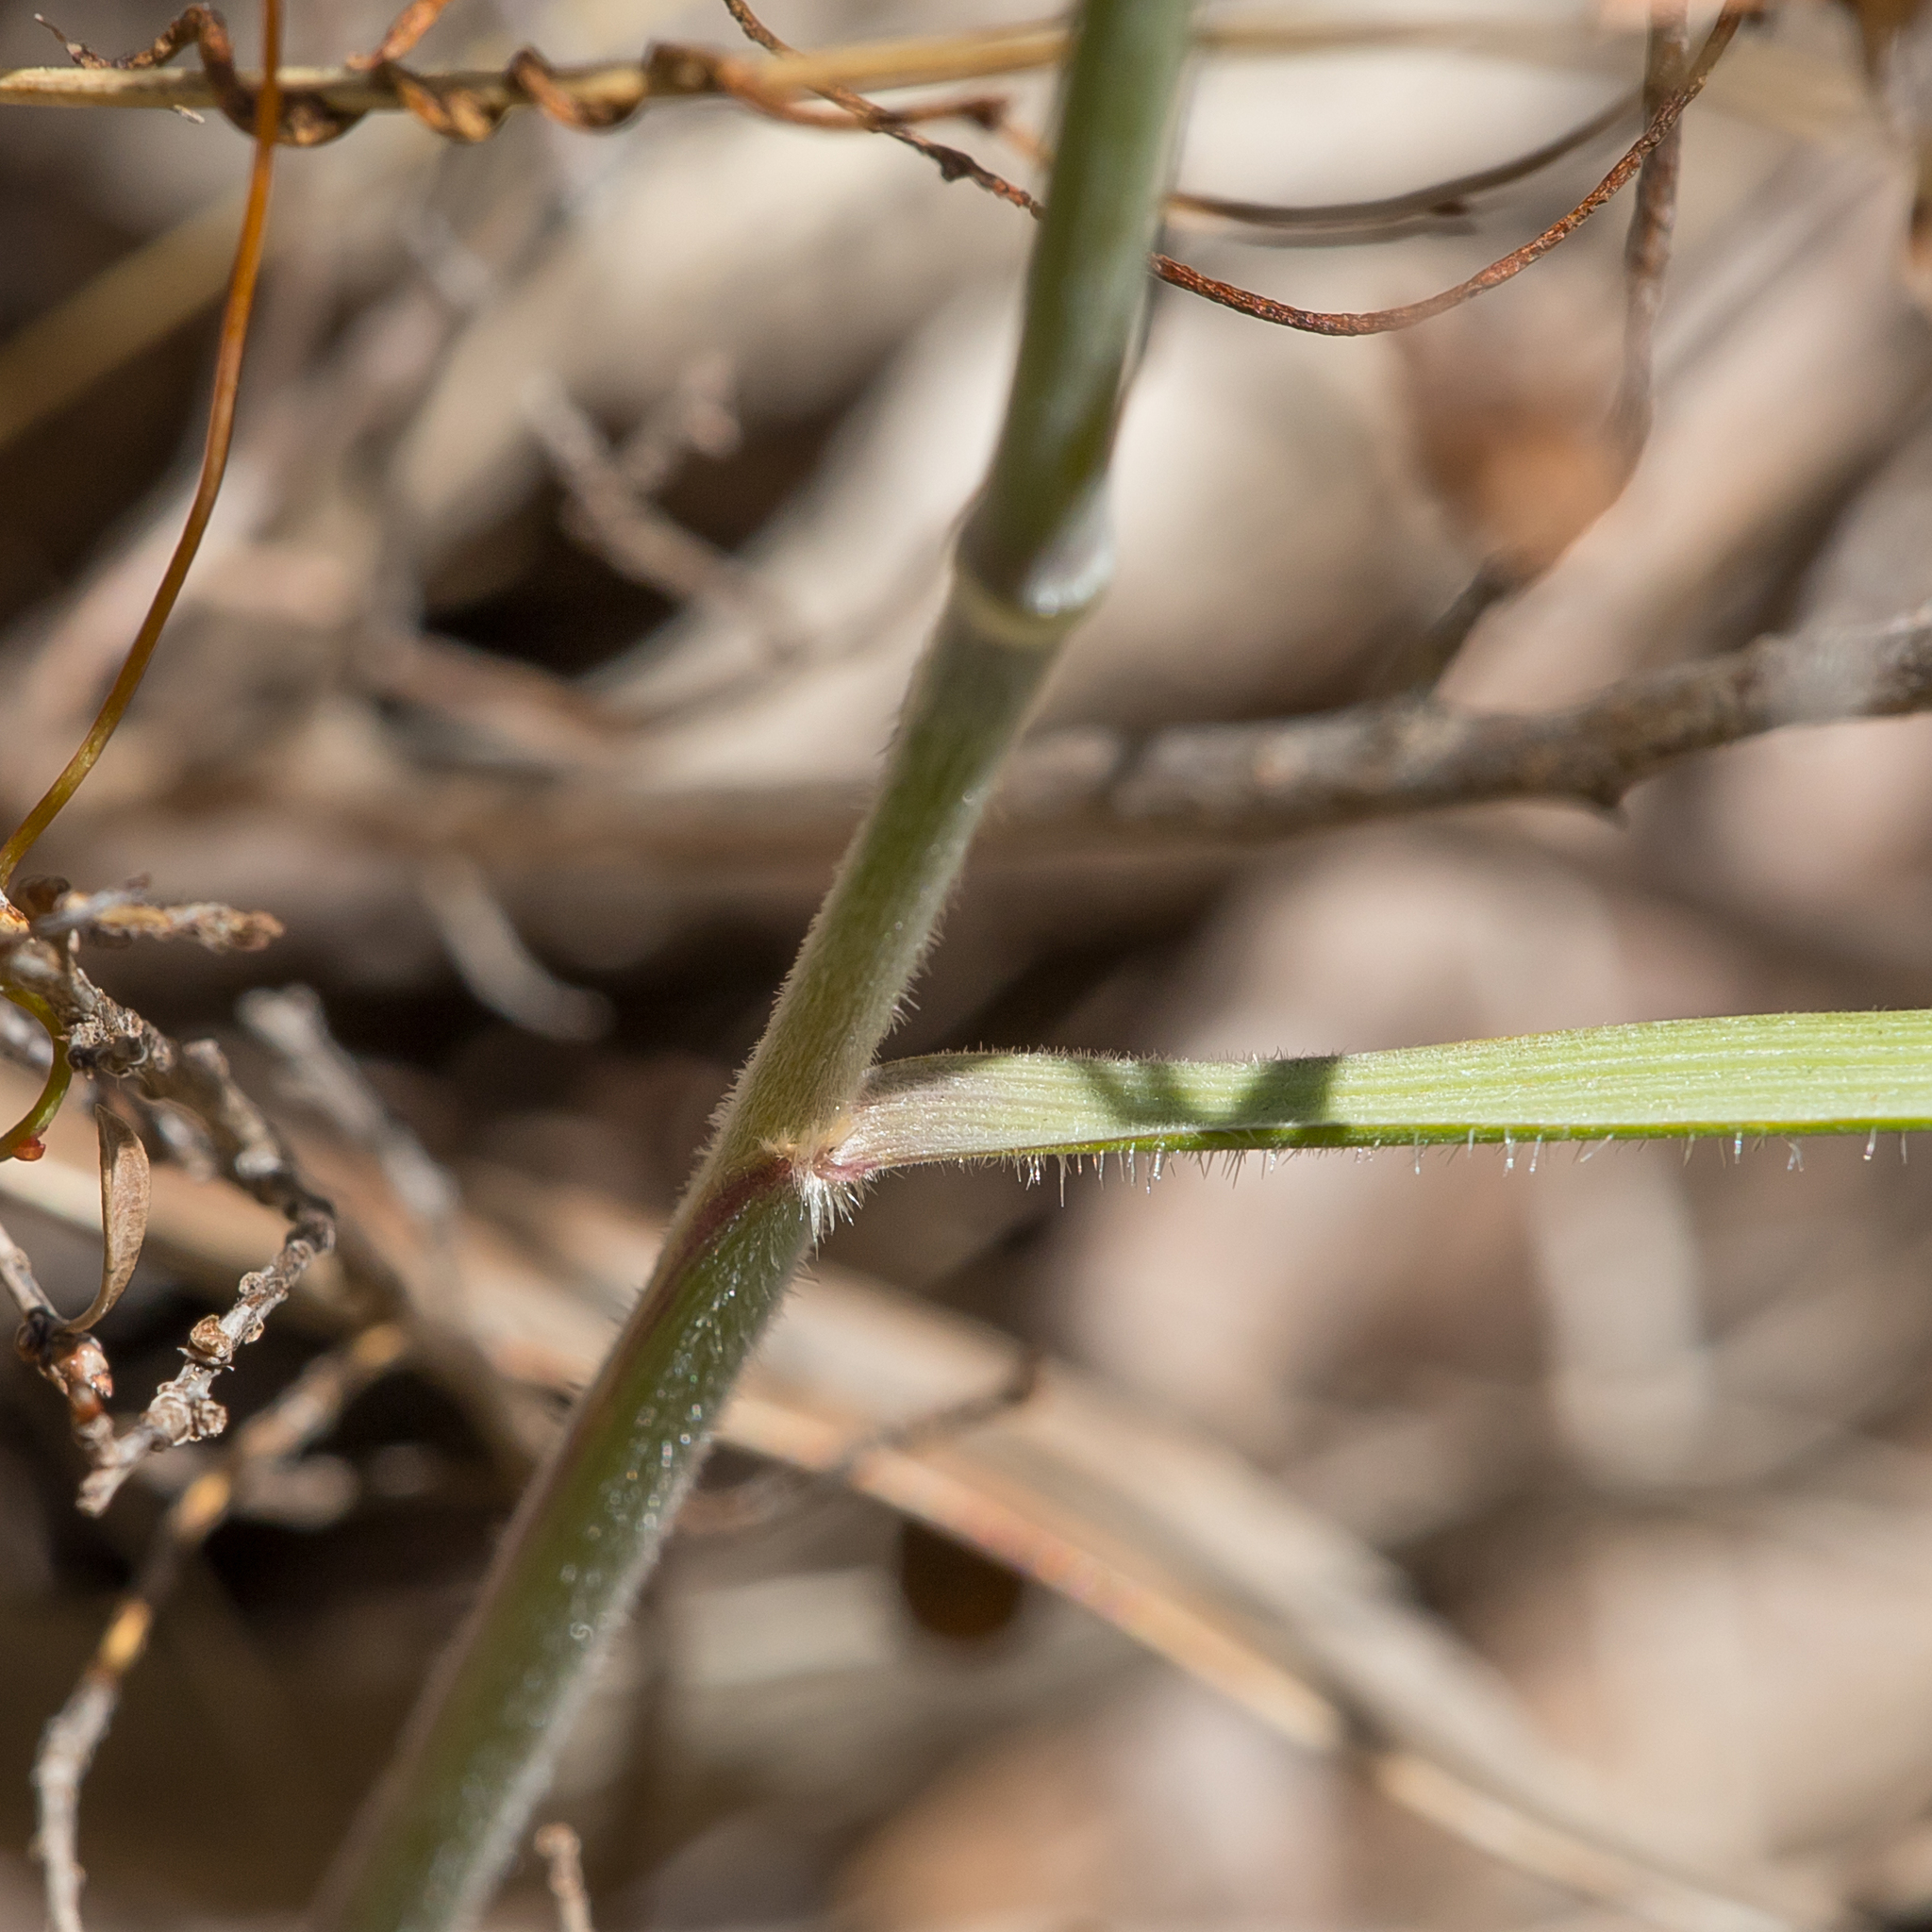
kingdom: Plantae
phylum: Tracheophyta
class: Liliopsida
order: Poales
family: Poaceae
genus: Austrostipa
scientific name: Austrostipa mollis
